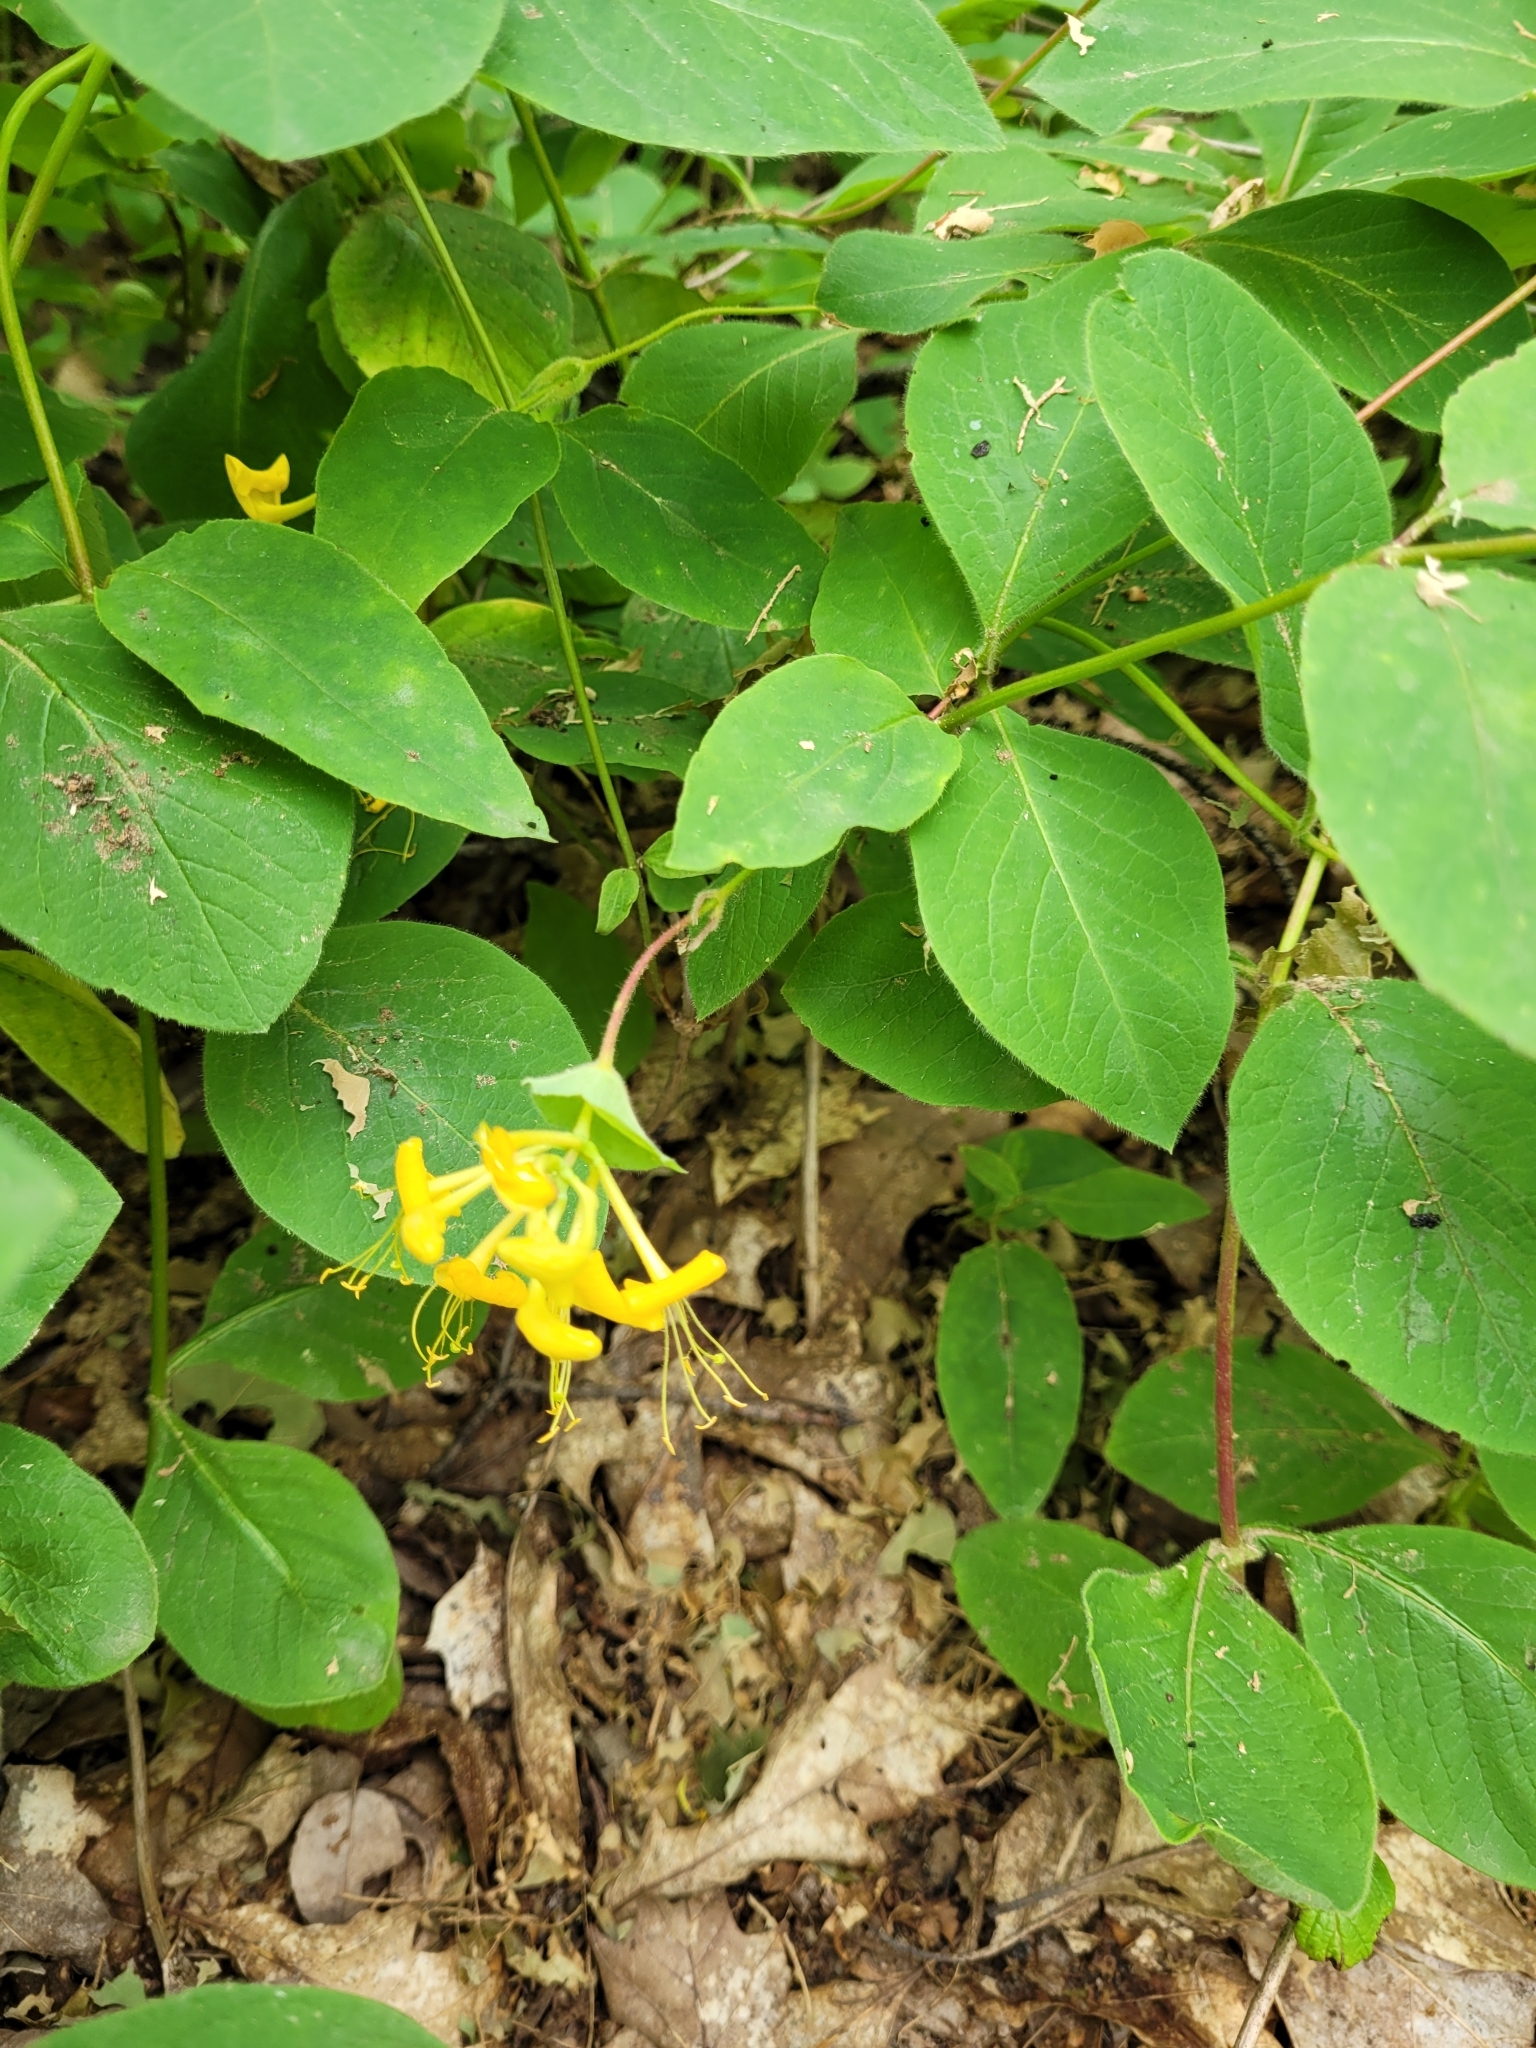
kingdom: Plantae
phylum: Tracheophyta
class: Magnoliopsida
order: Dipsacales
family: Caprifoliaceae
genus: Lonicera
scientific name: Lonicera hirsuta
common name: Hairy honeysuckle
